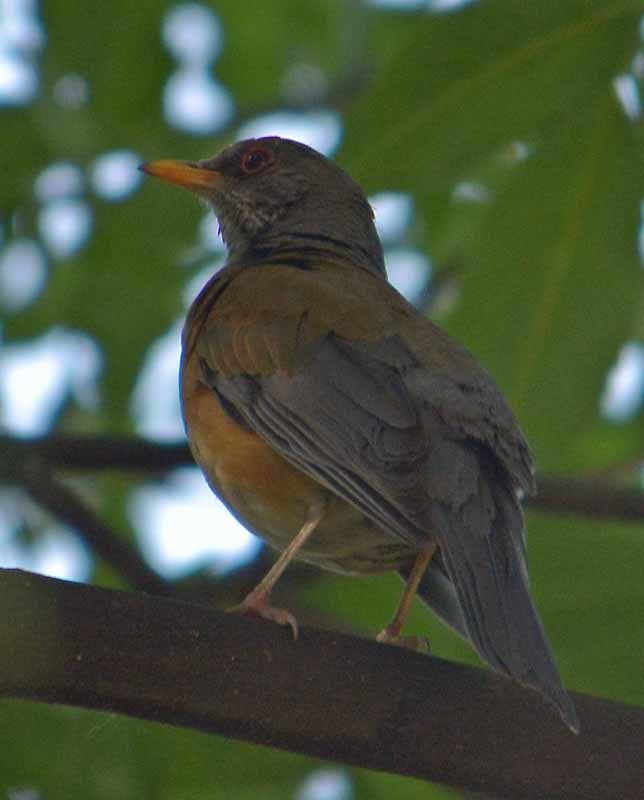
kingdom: Animalia
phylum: Chordata
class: Aves
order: Passeriformes
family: Turdidae
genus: Turdus
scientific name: Turdus rufopalliatus
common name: Rufous-backed robin
